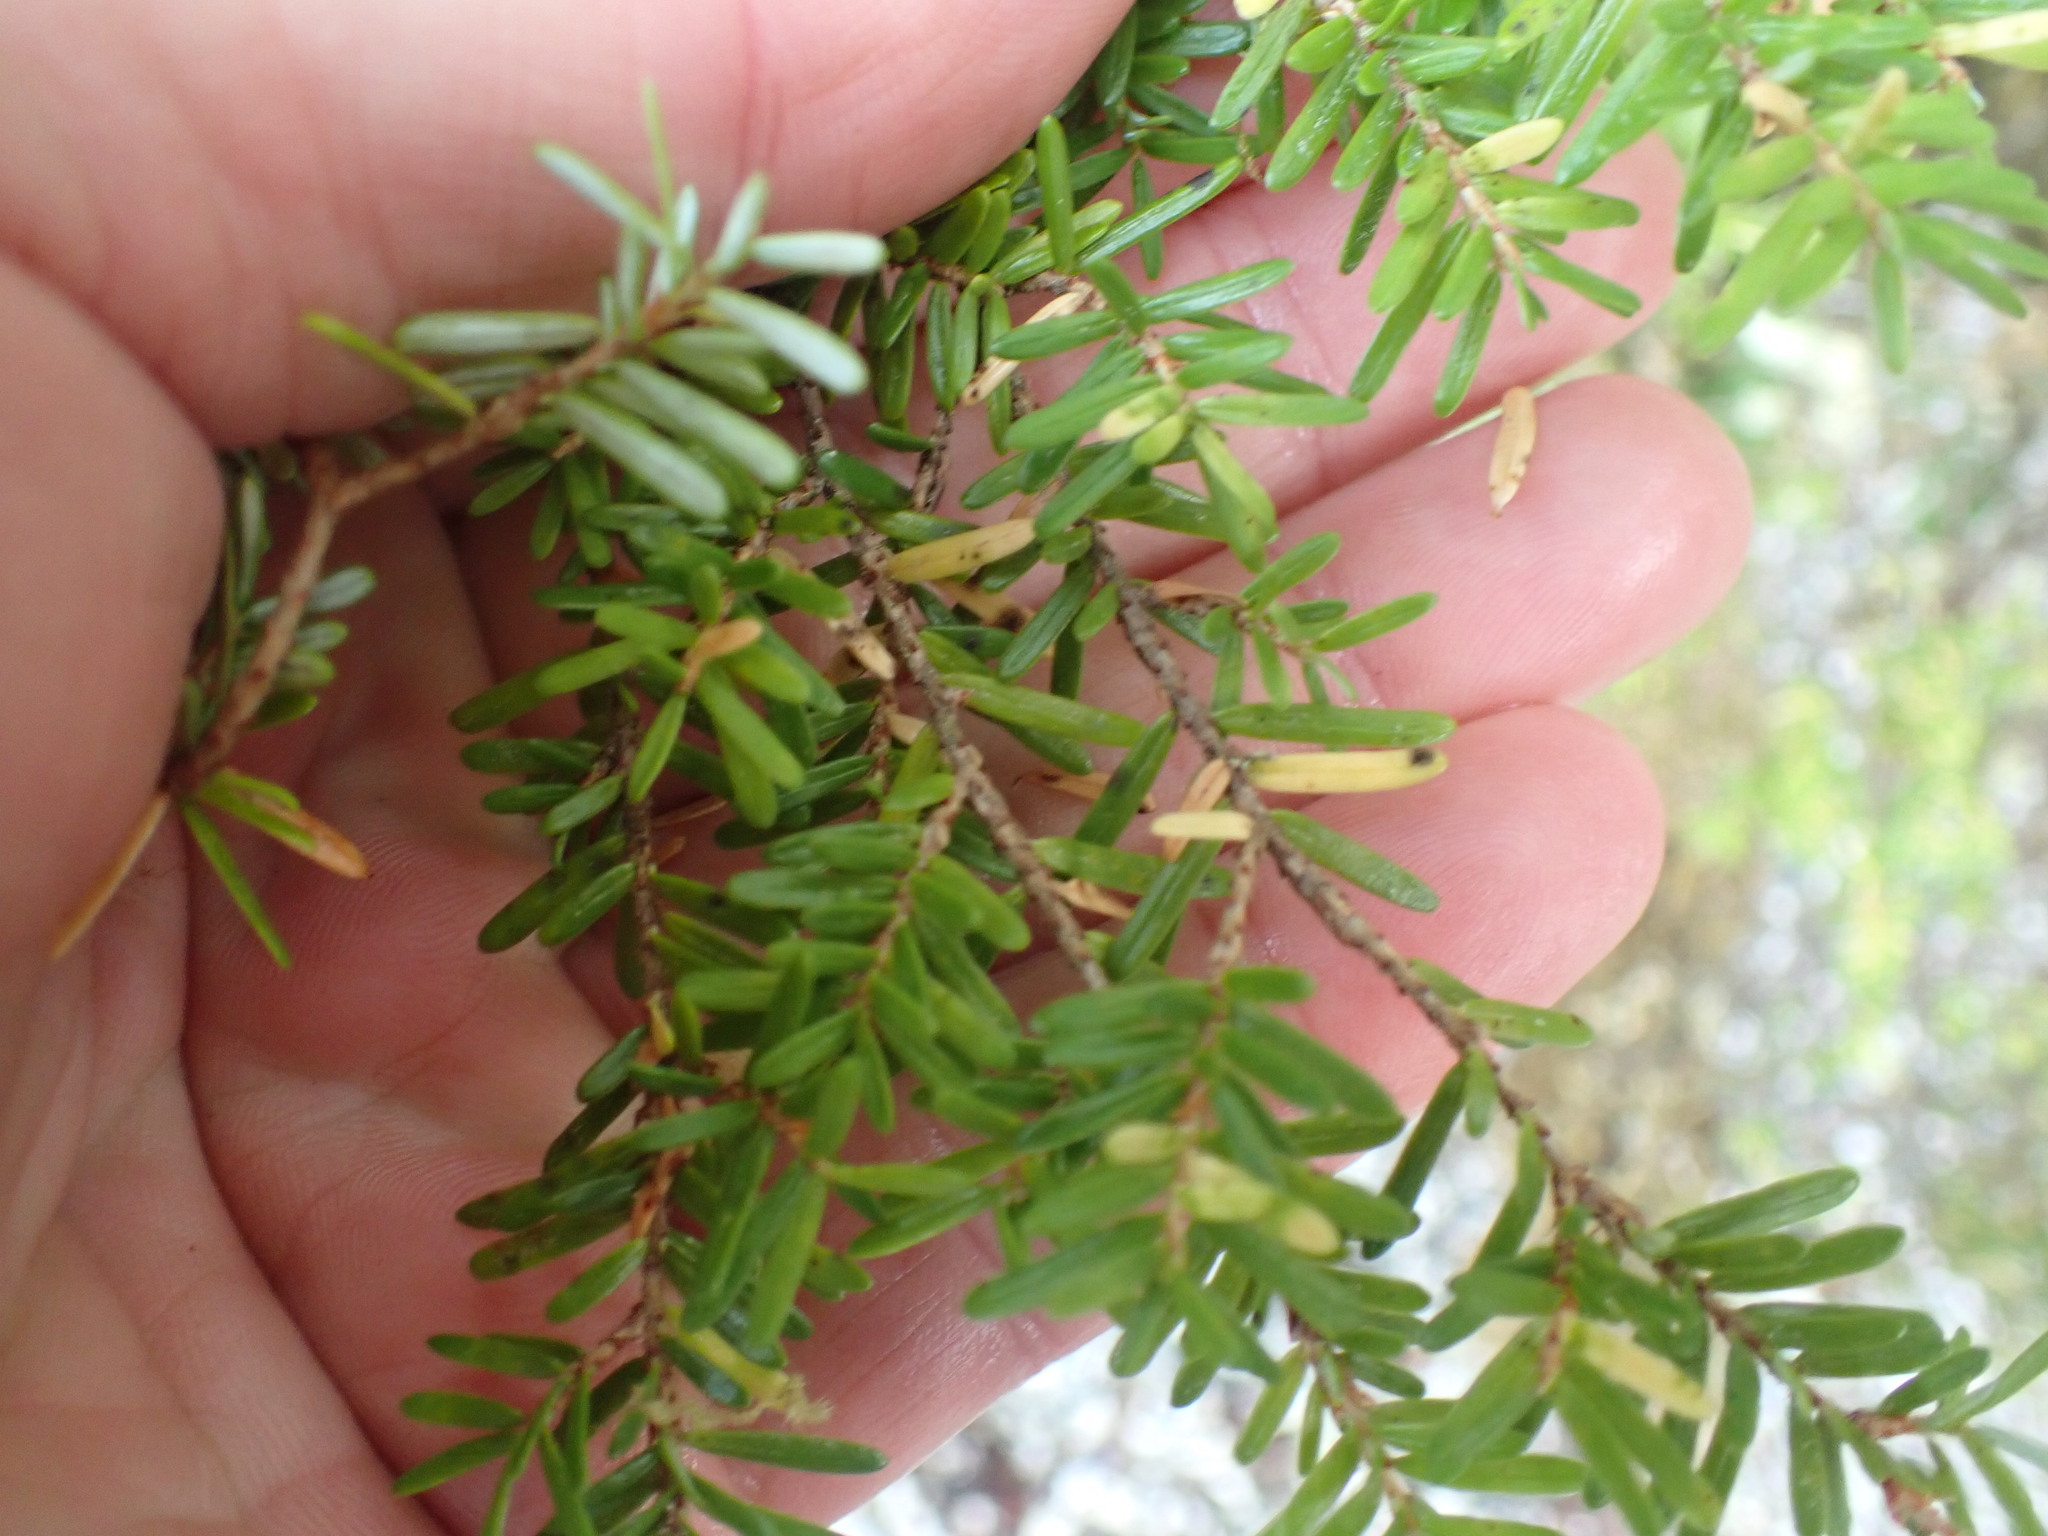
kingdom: Plantae
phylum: Tracheophyta
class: Pinopsida
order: Pinales
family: Pinaceae
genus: Tsuga
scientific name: Tsuga heterophylla
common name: Western hemlock
